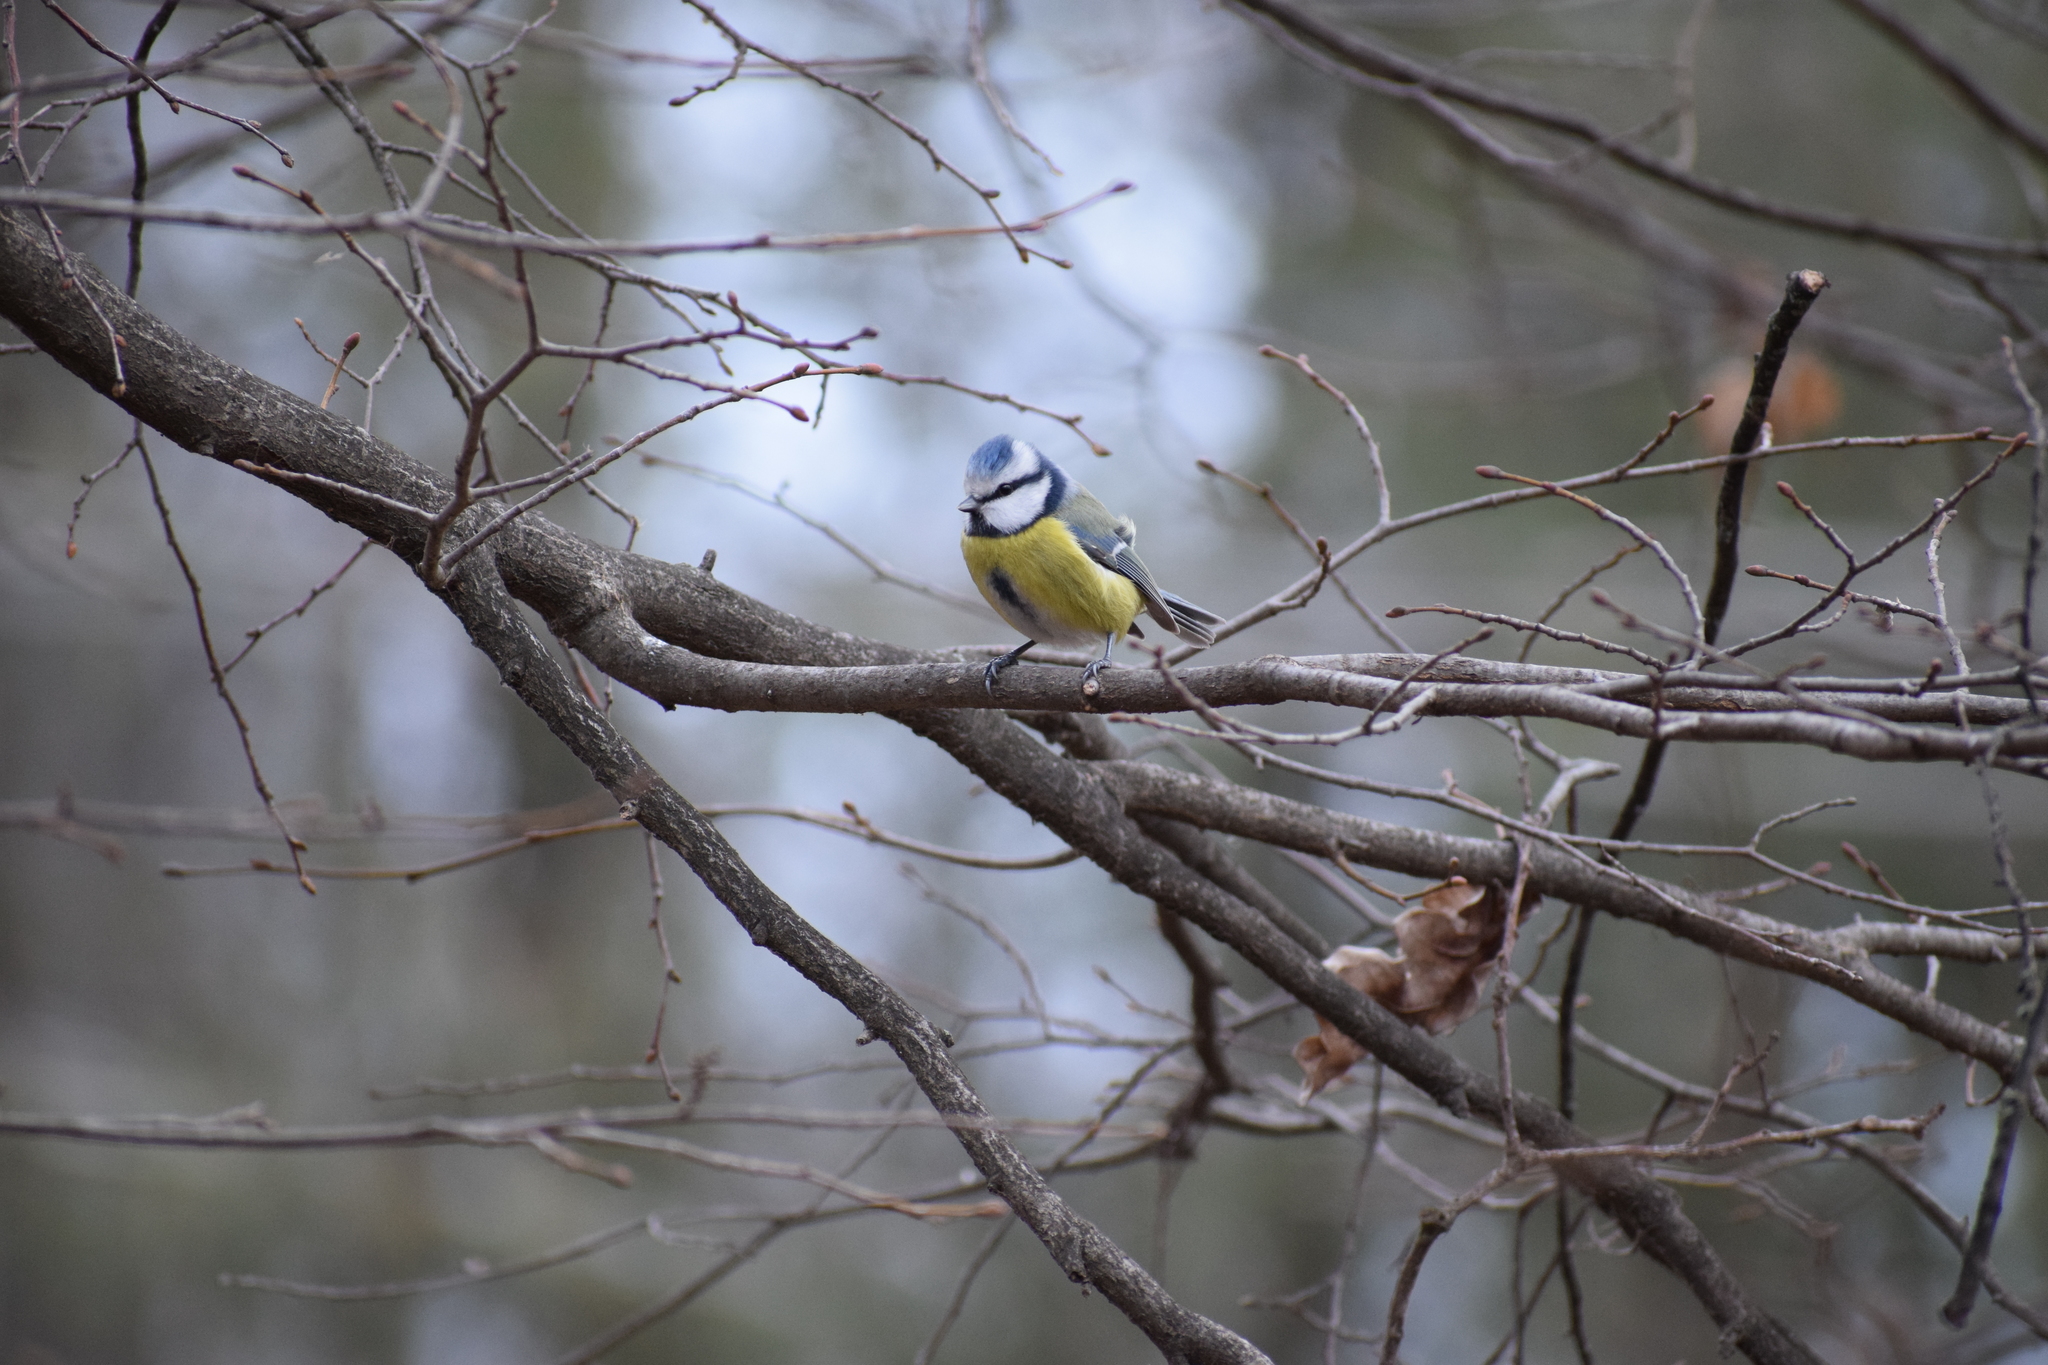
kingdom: Animalia
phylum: Chordata
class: Aves
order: Passeriformes
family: Paridae
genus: Cyanistes
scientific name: Cyanistes caeruleus
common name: Eurasian blue tit
